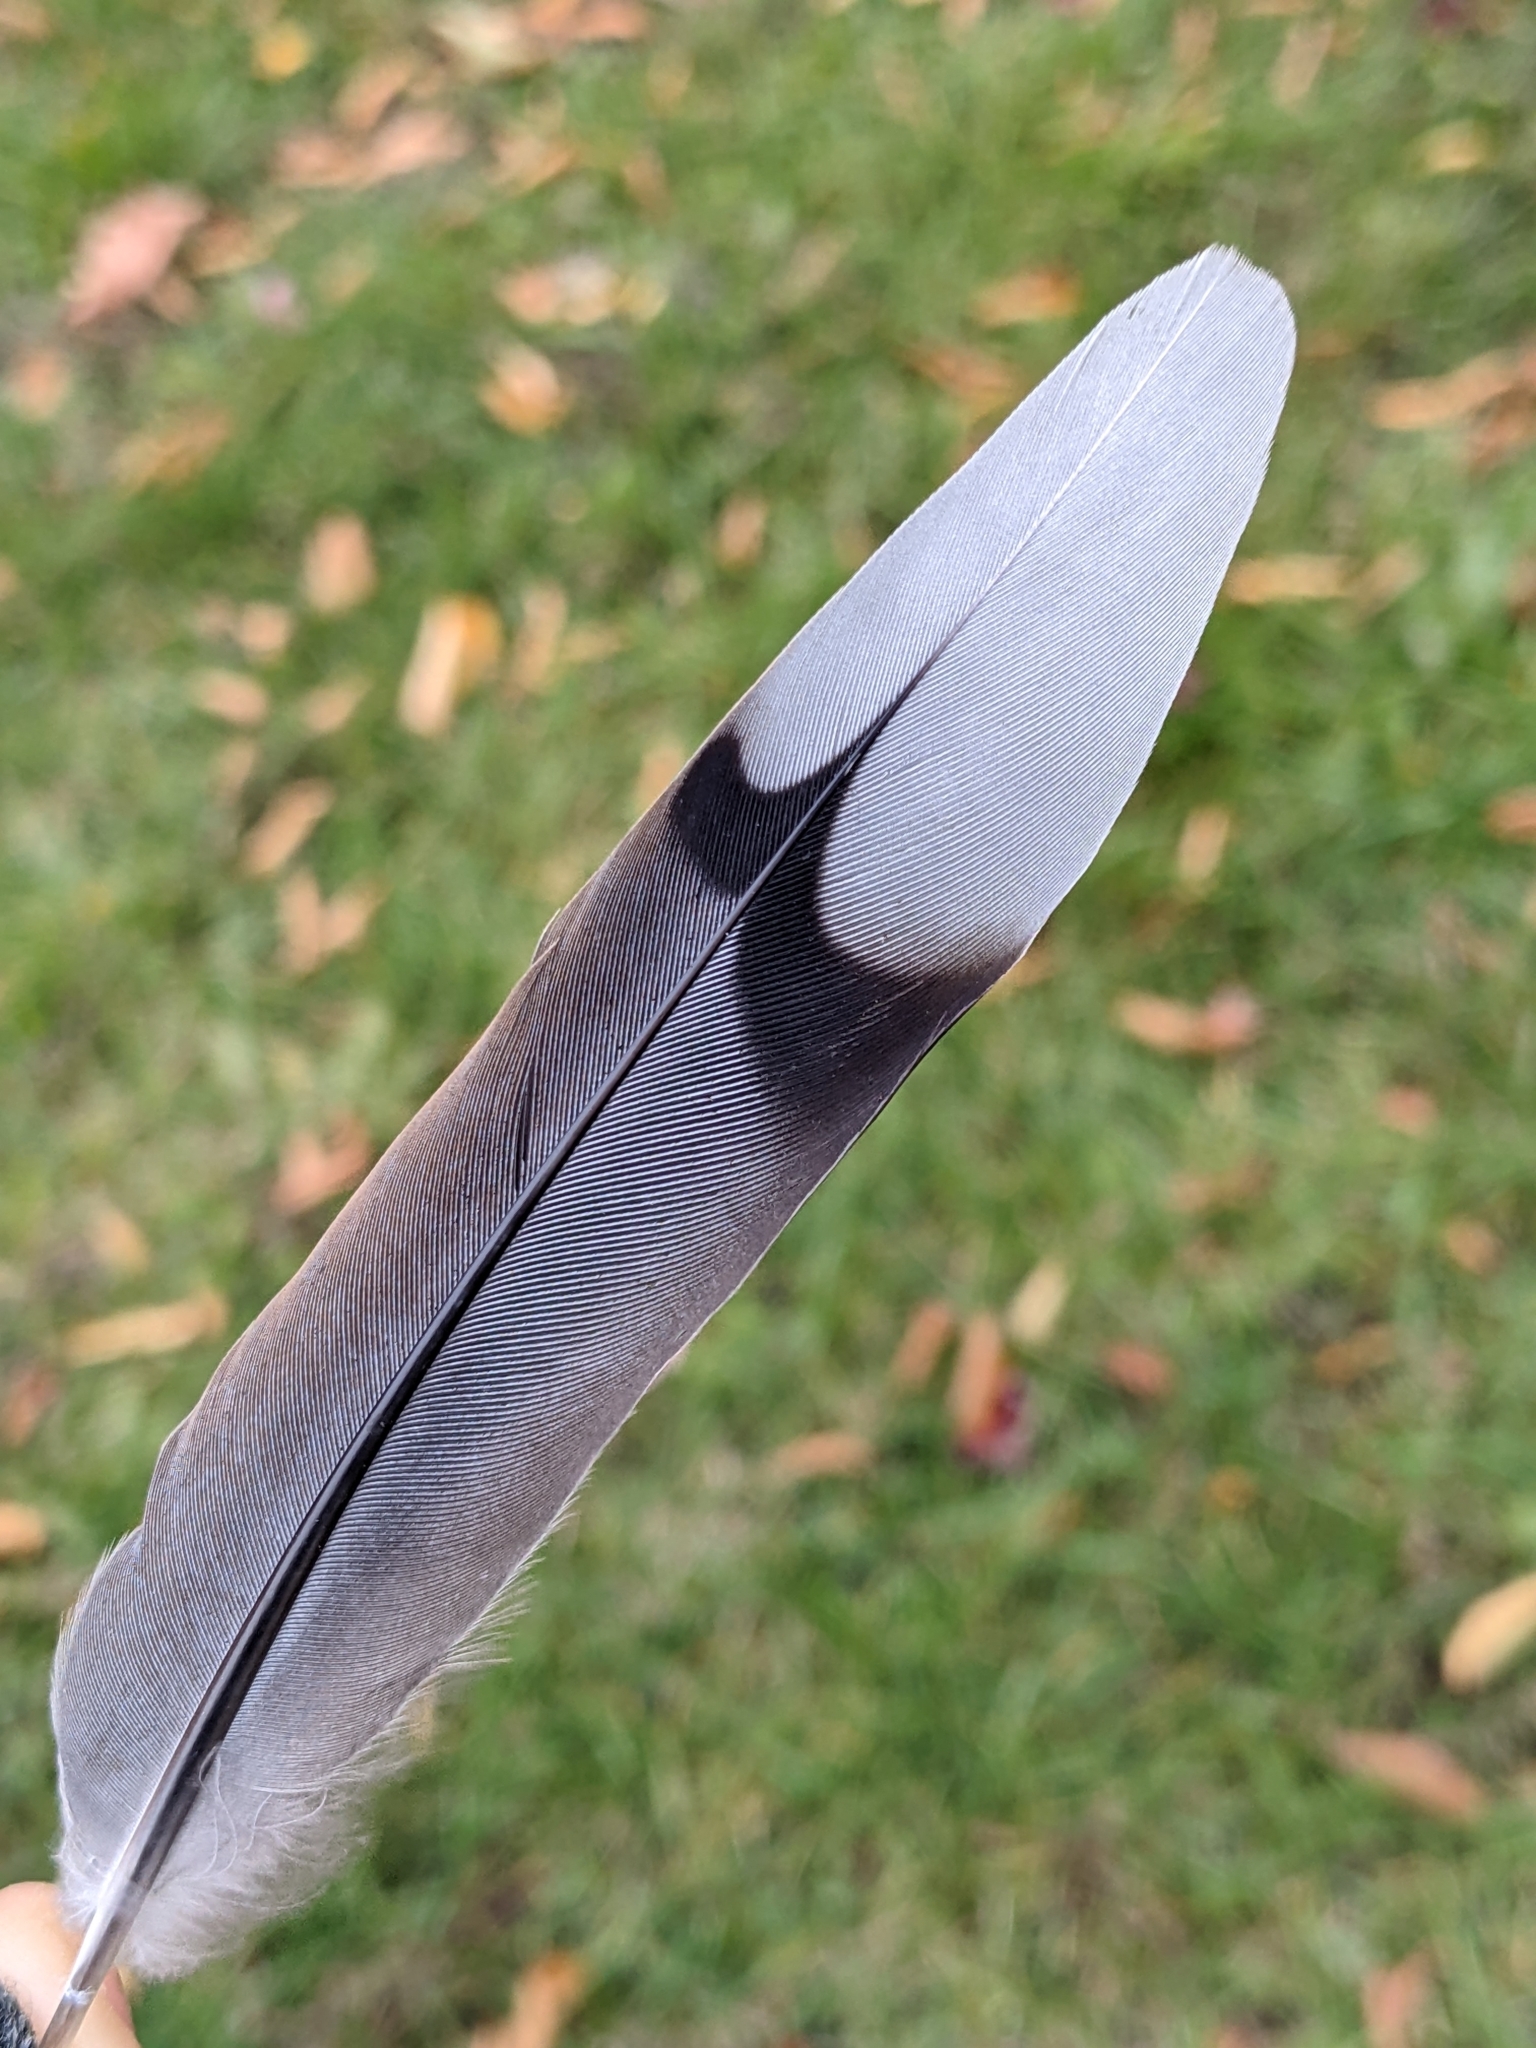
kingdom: Animalia
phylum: Chordata
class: Aves
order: Columbiformes
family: Columbidae
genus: Zenaida
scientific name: Zenaida macroura
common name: Mourning dove
